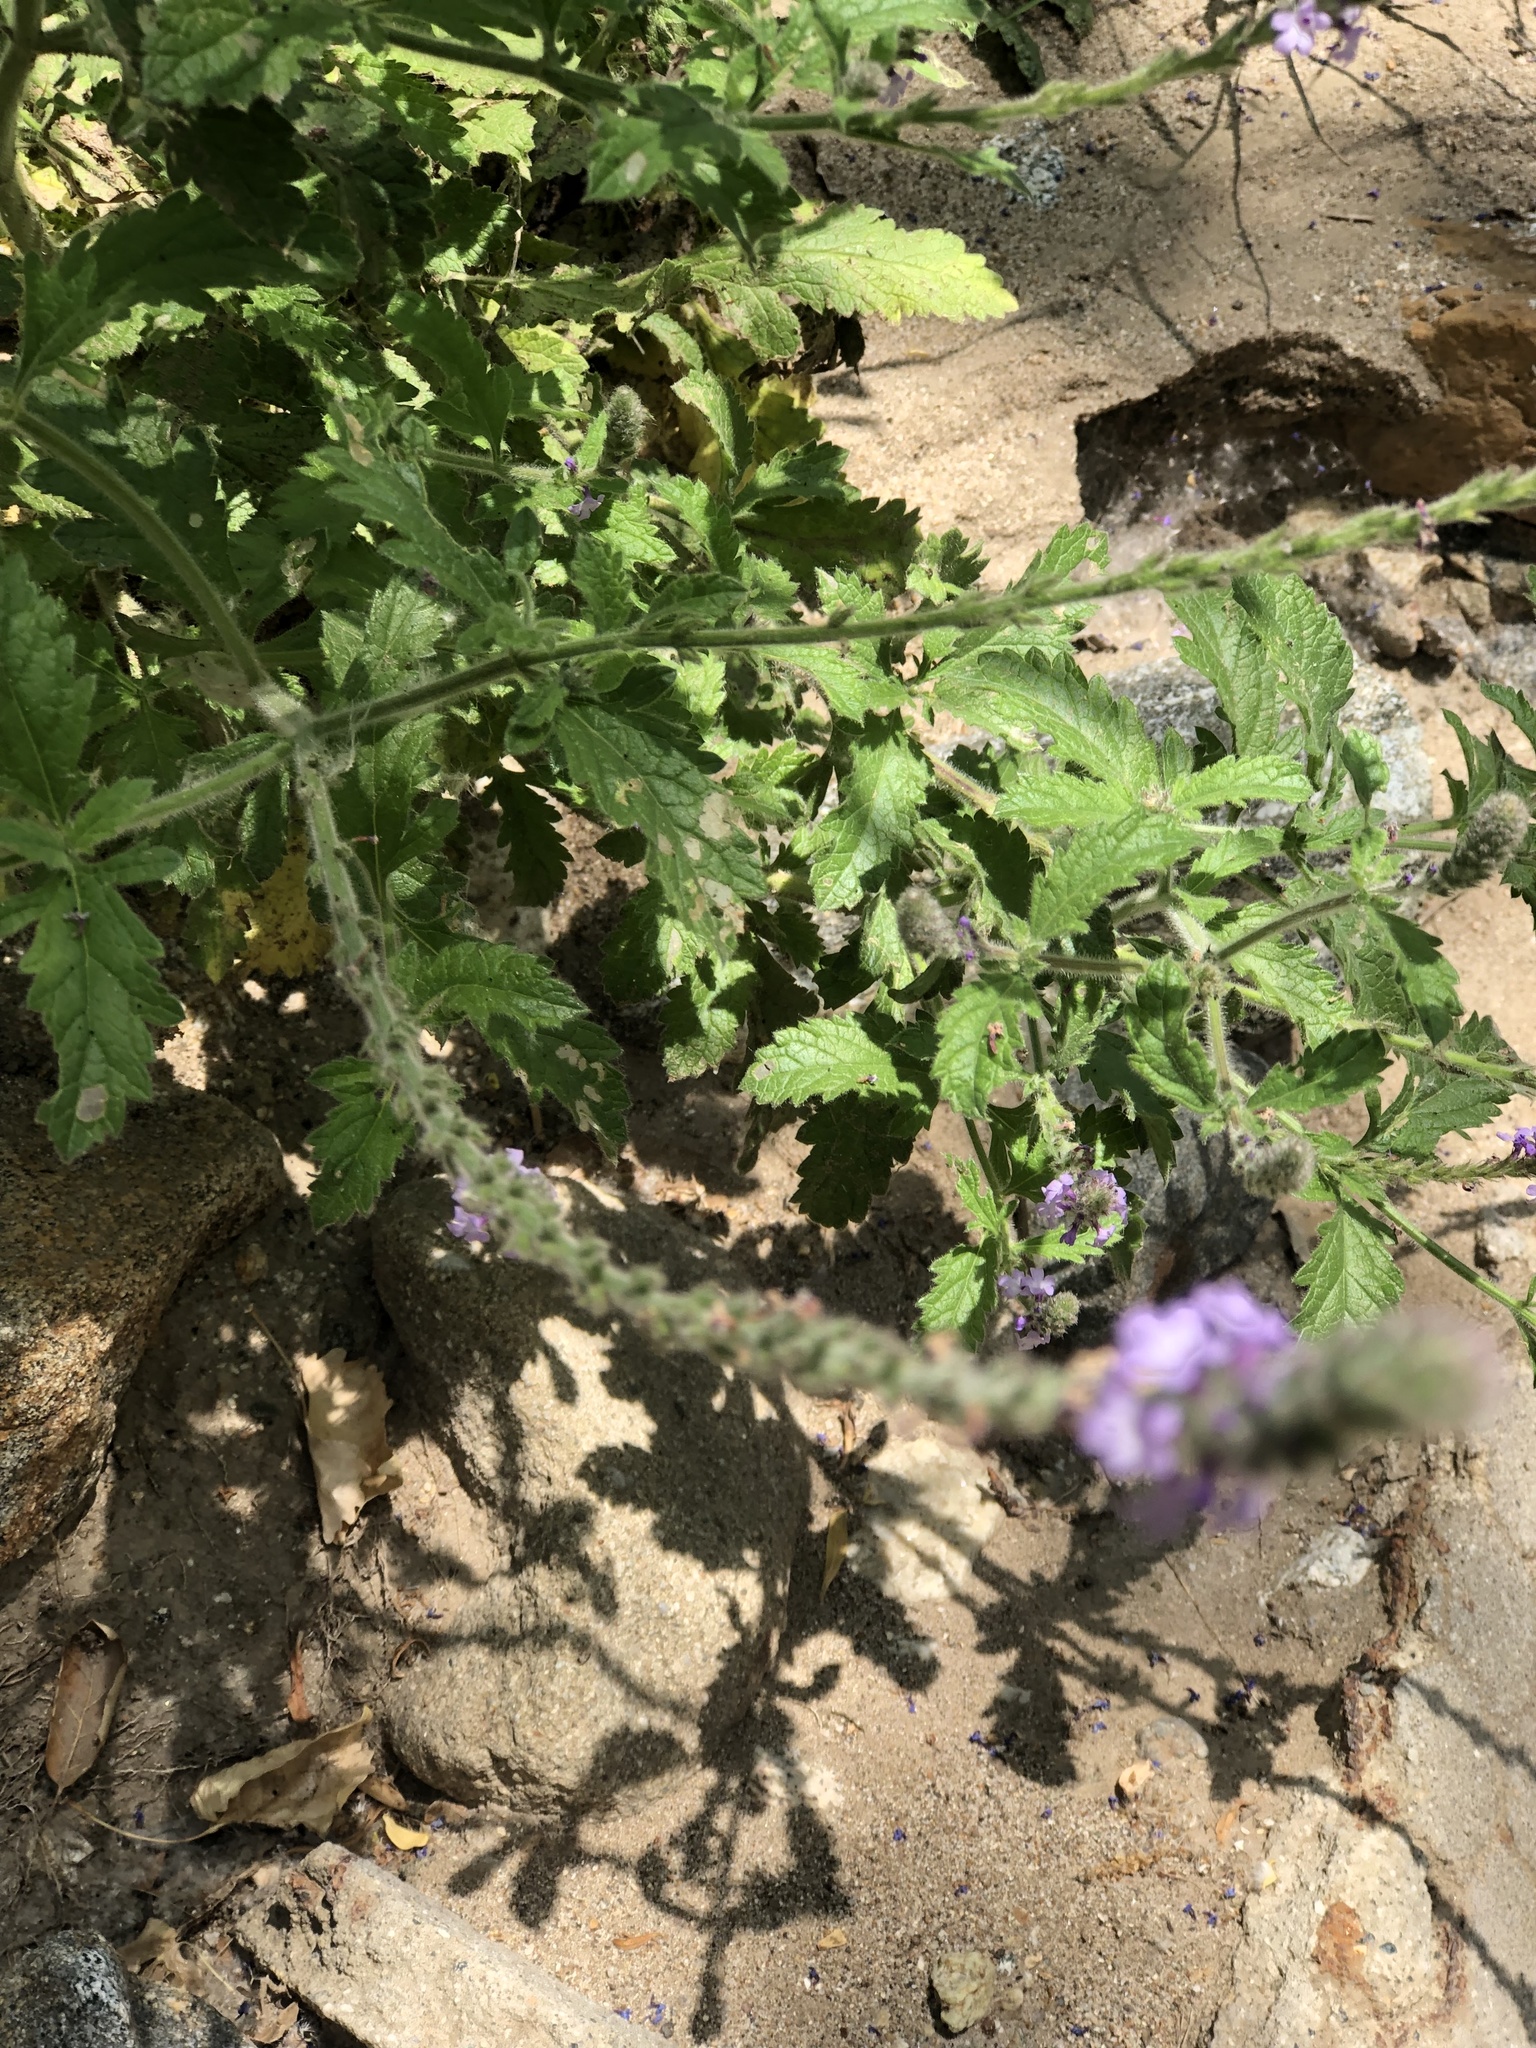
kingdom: Plantae
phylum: Tracheophyta
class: Magnoliopsida
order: Lamiales
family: Verbenaceae
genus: Verbena
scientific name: Verbena lasiostachys
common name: Vervain
